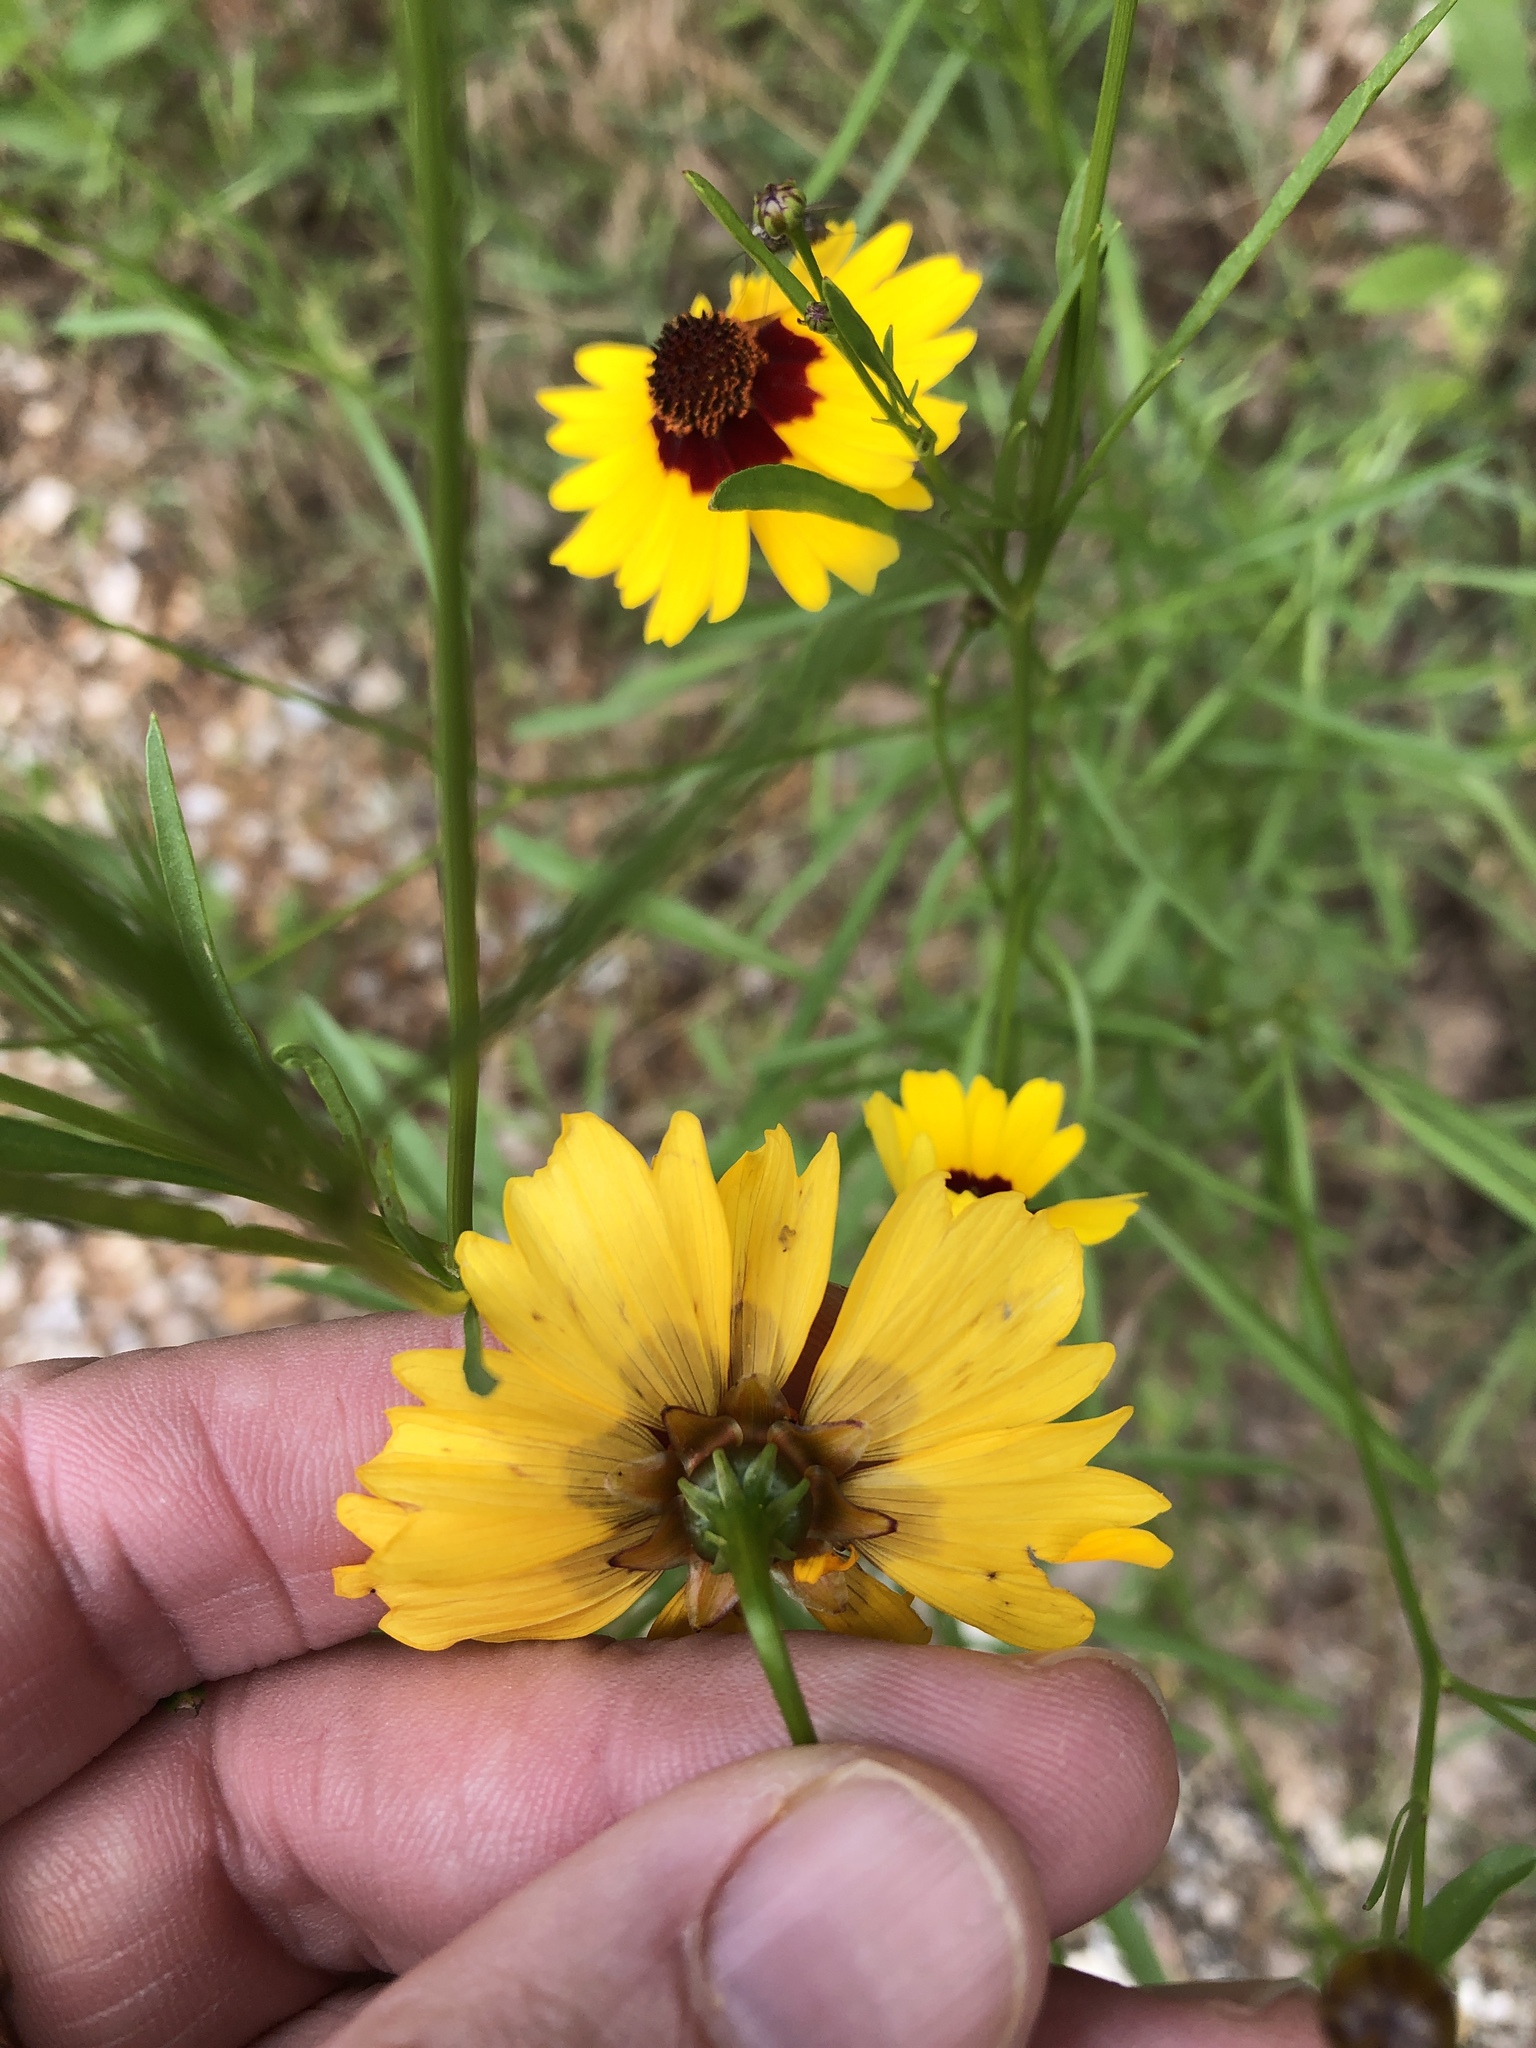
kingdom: Plantae
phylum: Tracheophyta
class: Magnoliopsida
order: Asterales
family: Asteraceae
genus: Coreopsis
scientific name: Coreopsis tinctoria
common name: Garden tickseed
